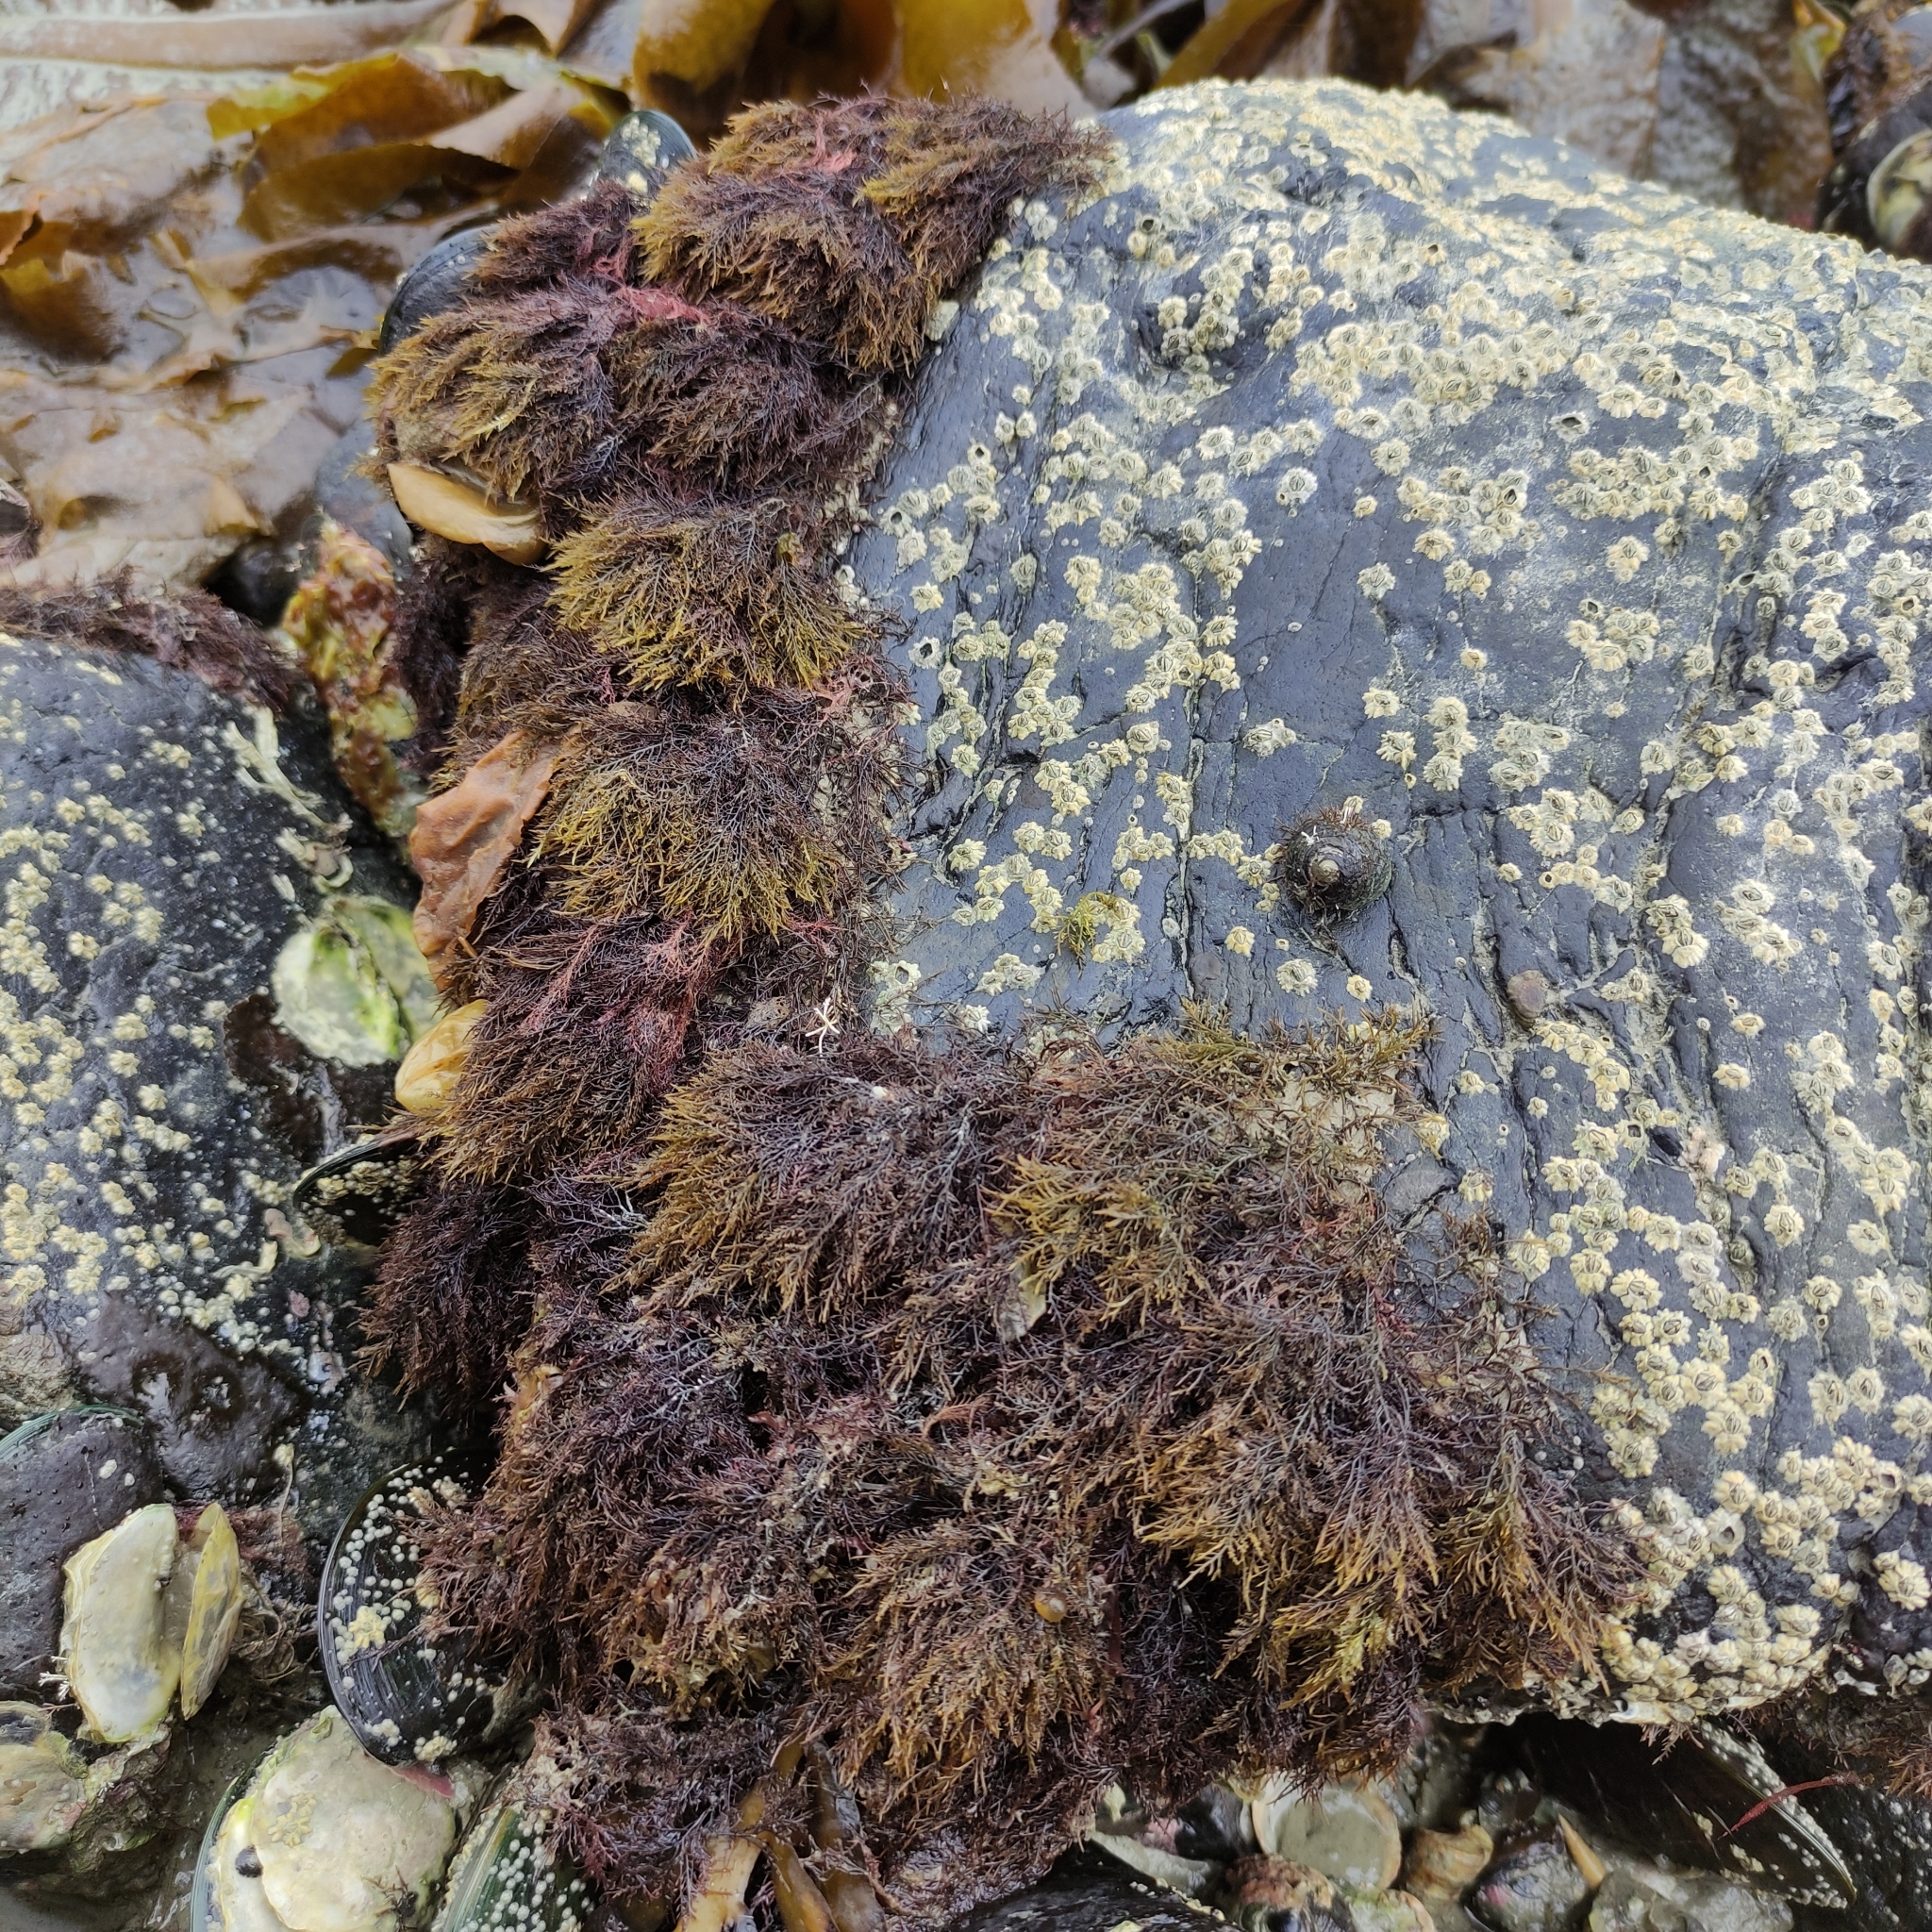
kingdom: Chromista
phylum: Ochrophyta
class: Phaeophyceae
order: Scytothamnales
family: Scytothamnaceae
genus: Scytothamnus
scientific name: Scytothamnus australis
